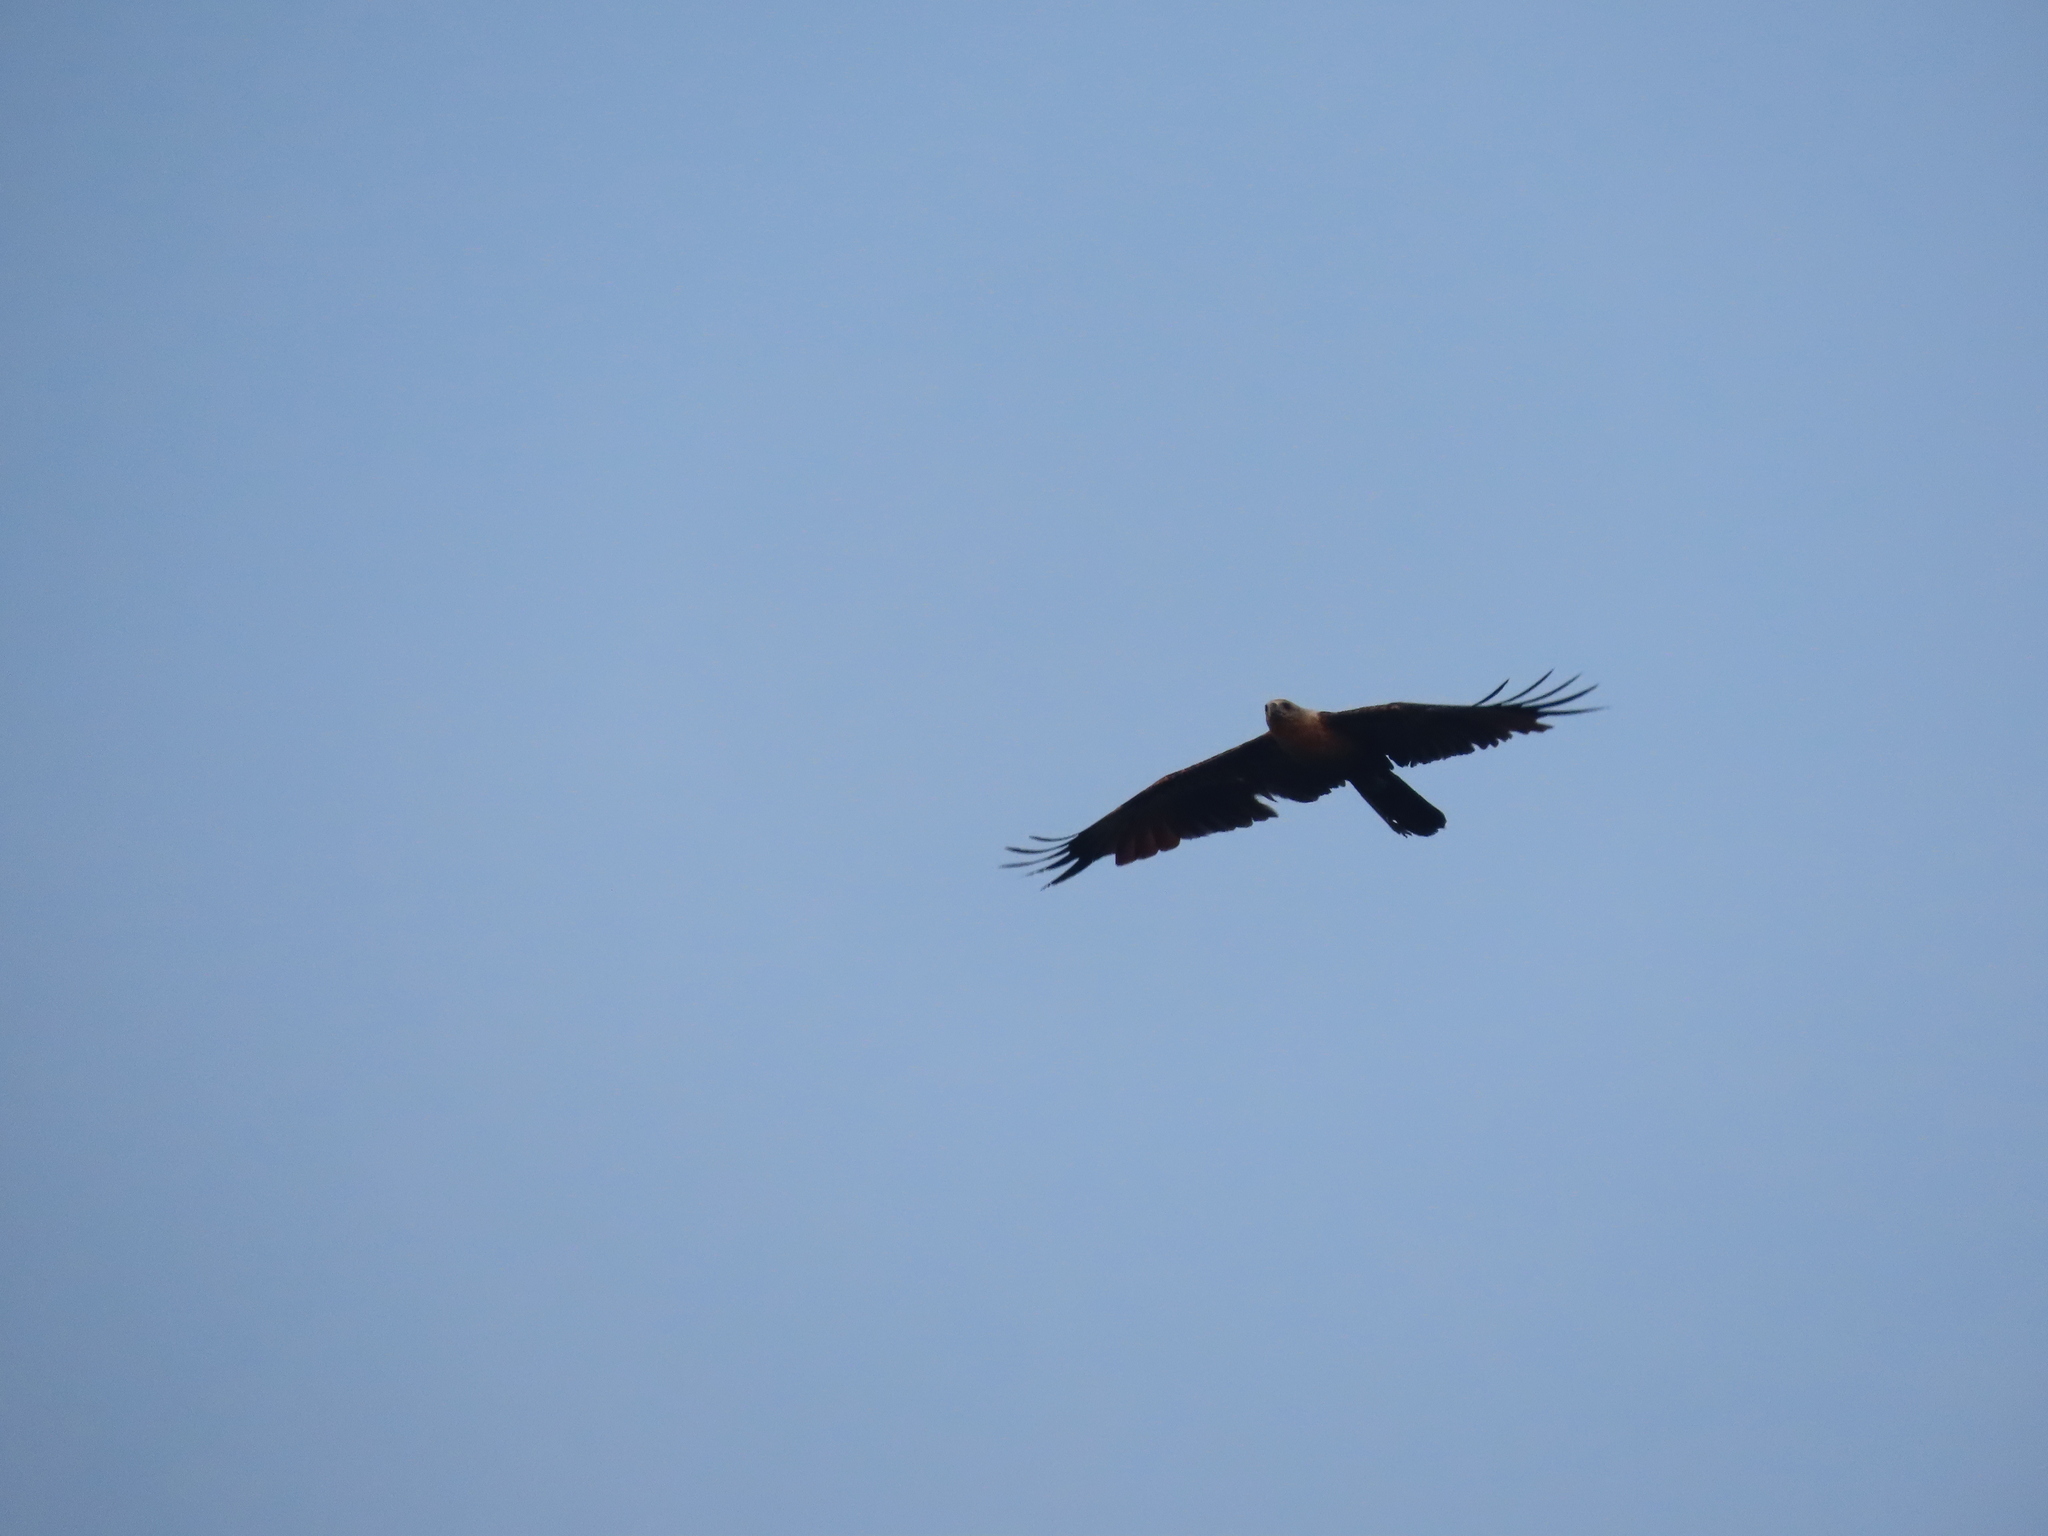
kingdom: Animalia
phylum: Chordata
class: Aves
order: Accipitriformes
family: Accipitridae
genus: Haliastur
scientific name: Haliastur indus
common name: Brahminy kite
